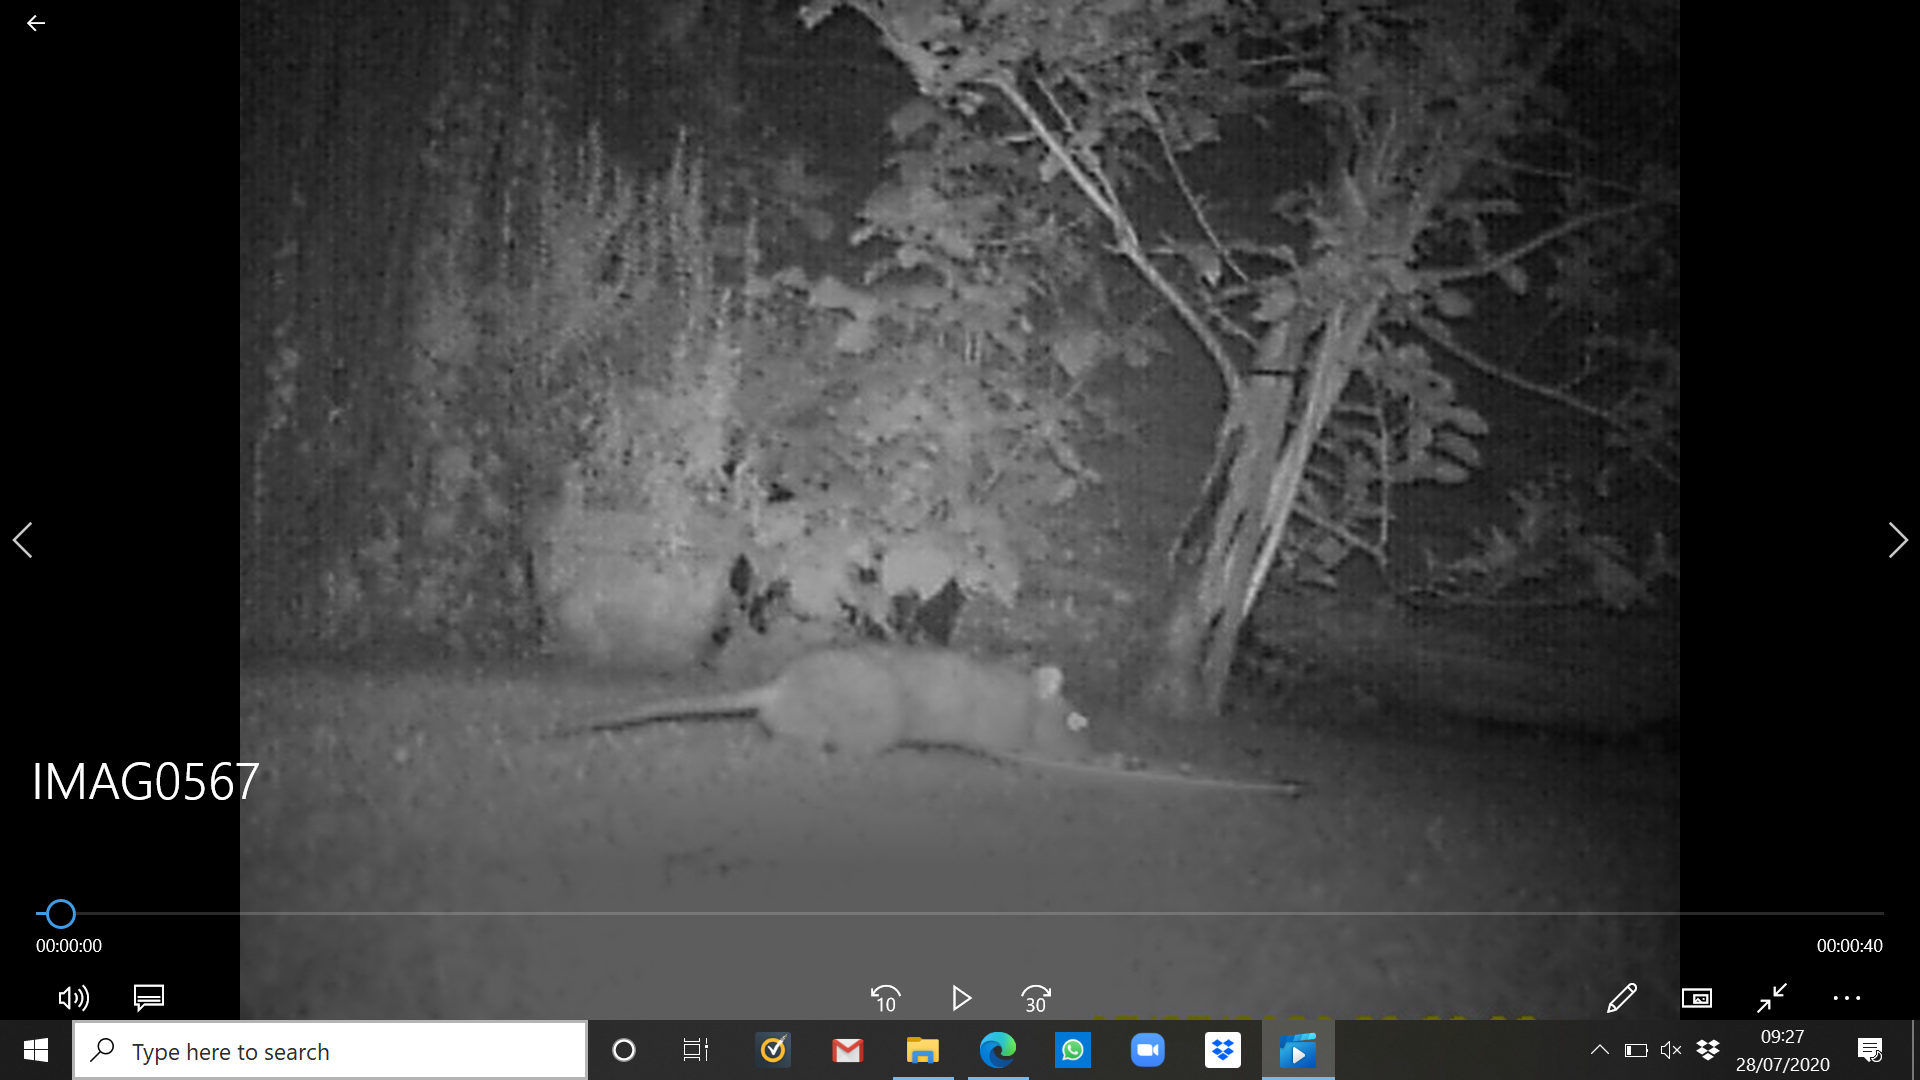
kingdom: Animalia
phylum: Chordata
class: Mammalia
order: Rodentia
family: Muridae
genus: Rattus
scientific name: Rattus norvegicus
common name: Brown rat
